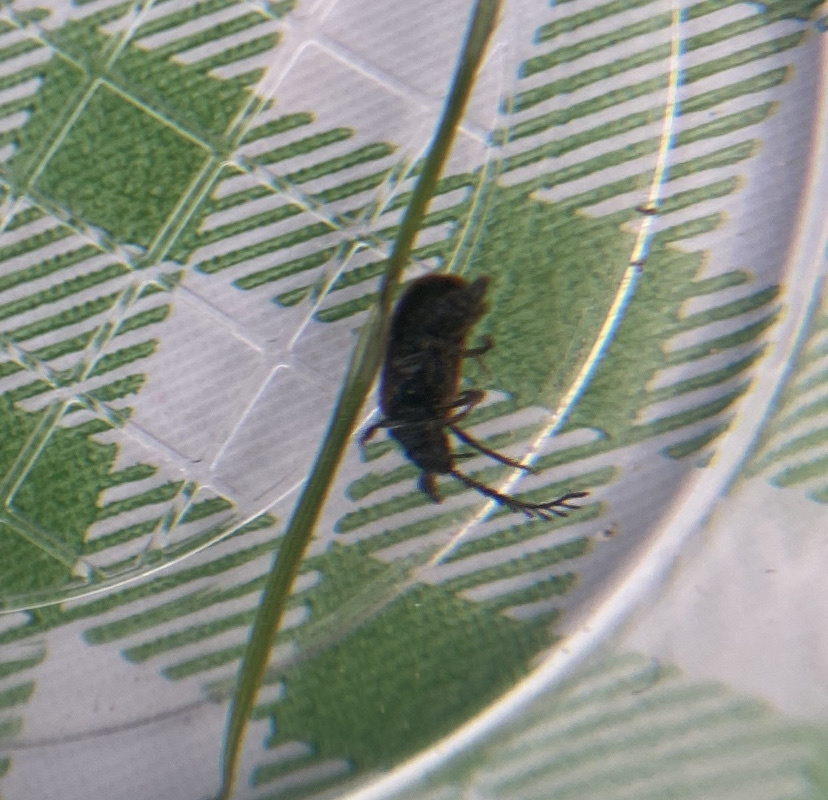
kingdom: Animalia
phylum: Arthropoda
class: Insecta
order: Coleoptera
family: Drilidae
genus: Drilus
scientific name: Drilus flavescens
